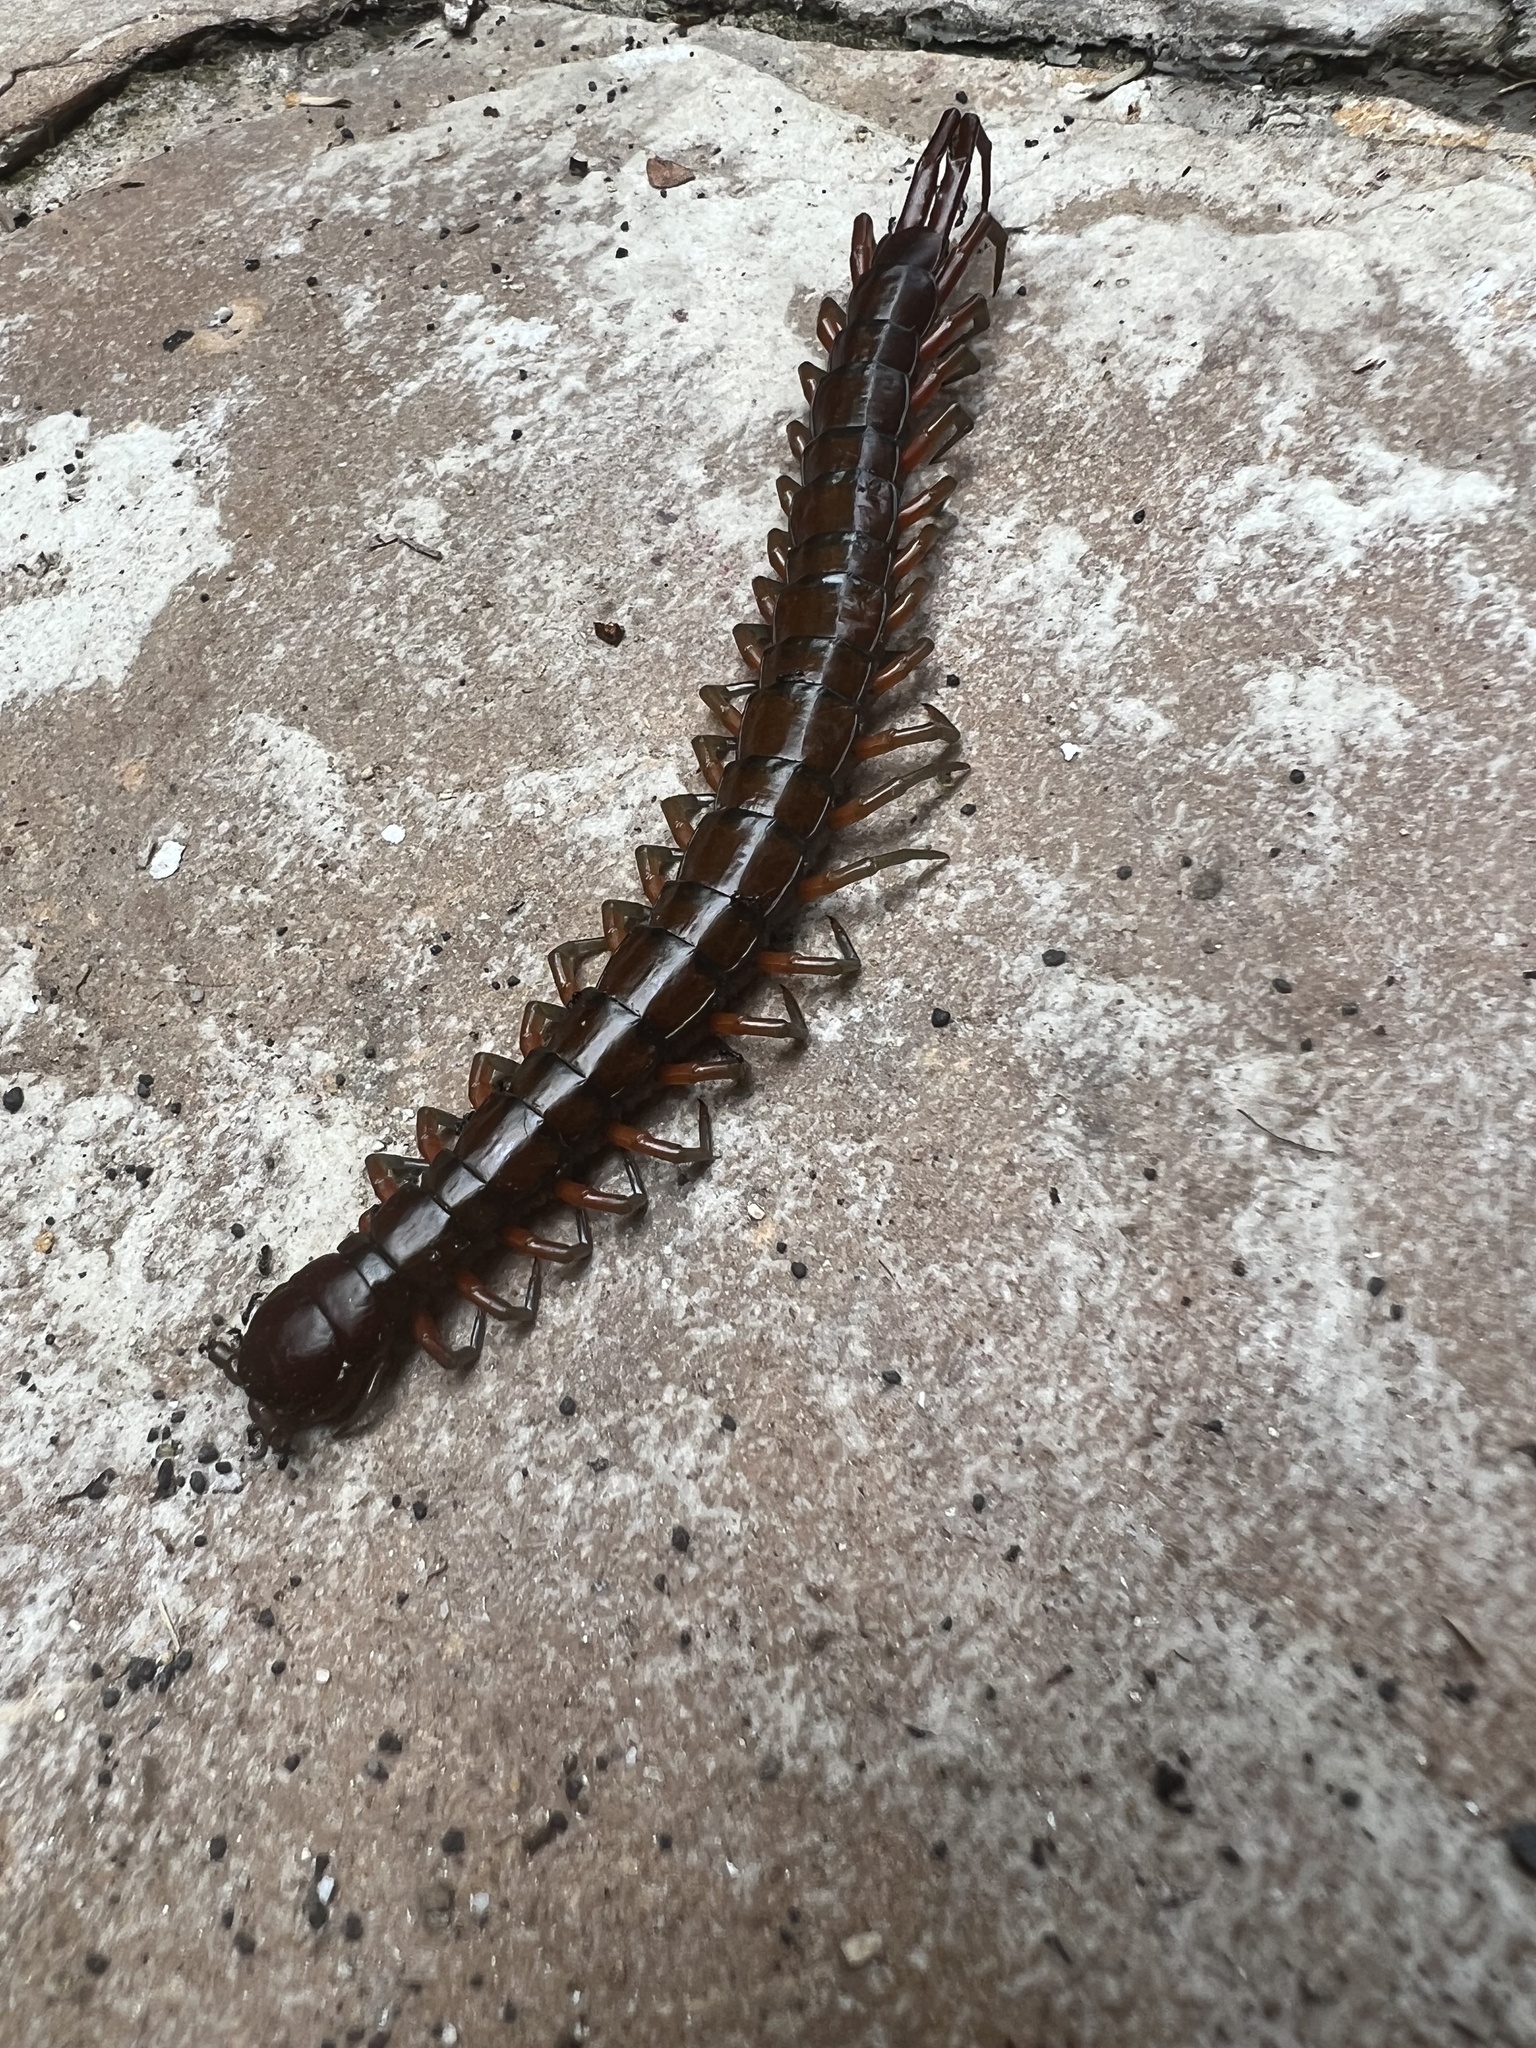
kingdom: Animalia
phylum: Arthropoda
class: Chilopoda
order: Scolopendromorpha
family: Scolopendridae
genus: Scolopendra
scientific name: Scolopendra subspinipes
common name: Centipede
